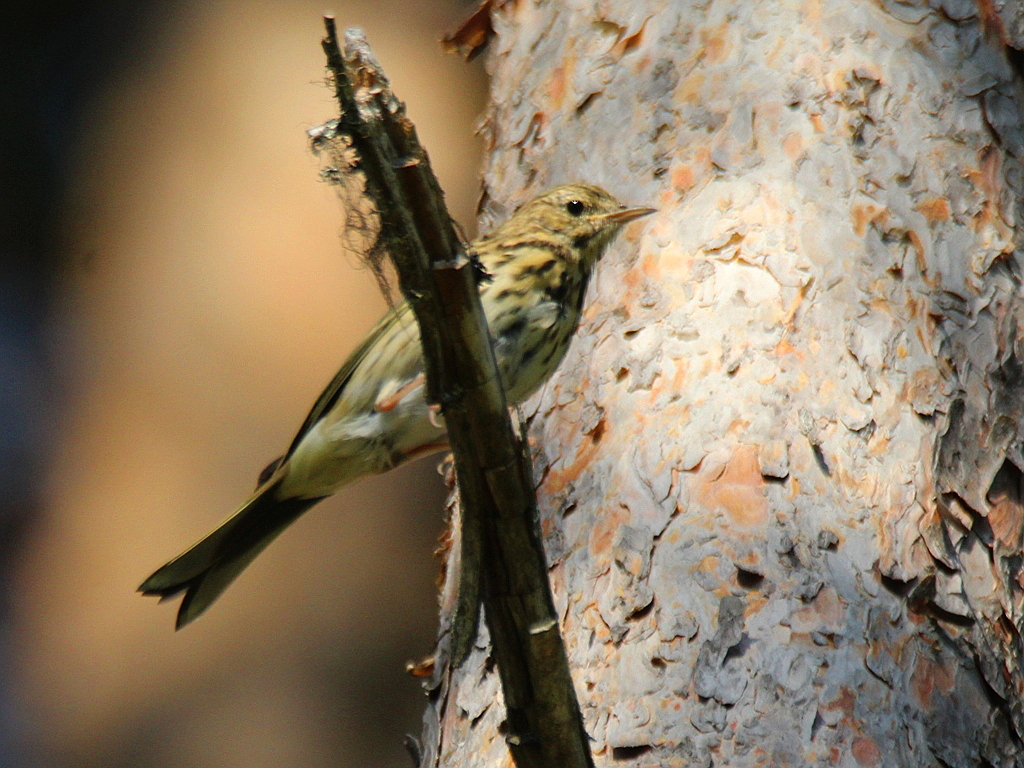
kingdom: Animalia
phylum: Chordata
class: Aves
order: Passeriformes
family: Motacillidae
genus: Anthus
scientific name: Anthus trivialis
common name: Tree pipit
